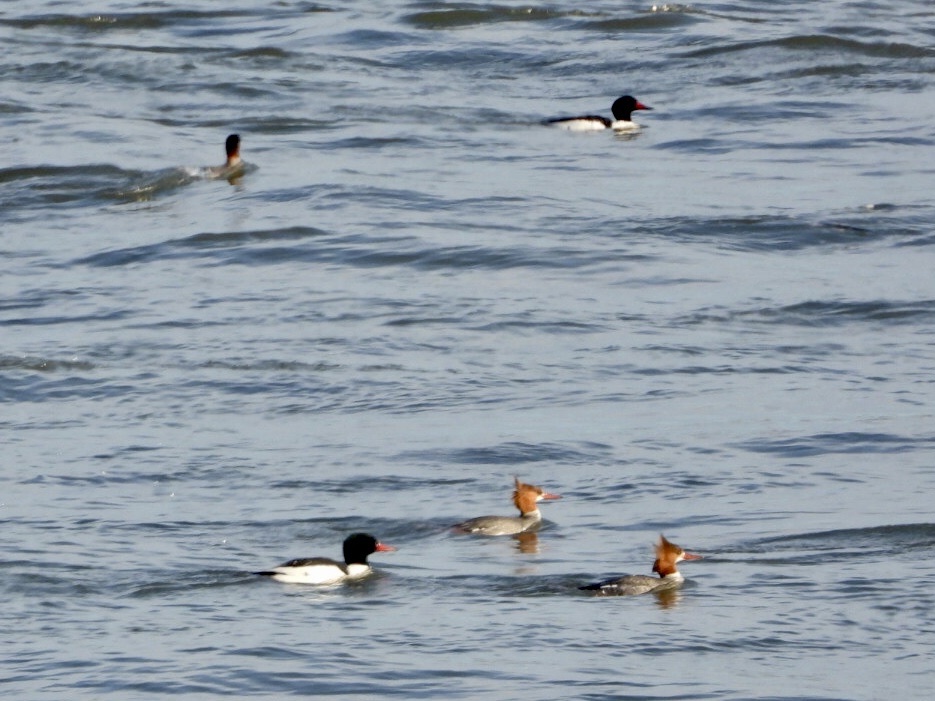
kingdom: Animalia
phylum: Chordata
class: Aves
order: Anseriformes
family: Anatidae
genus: Mergus
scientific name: Mergus merganser
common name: Common merganser
